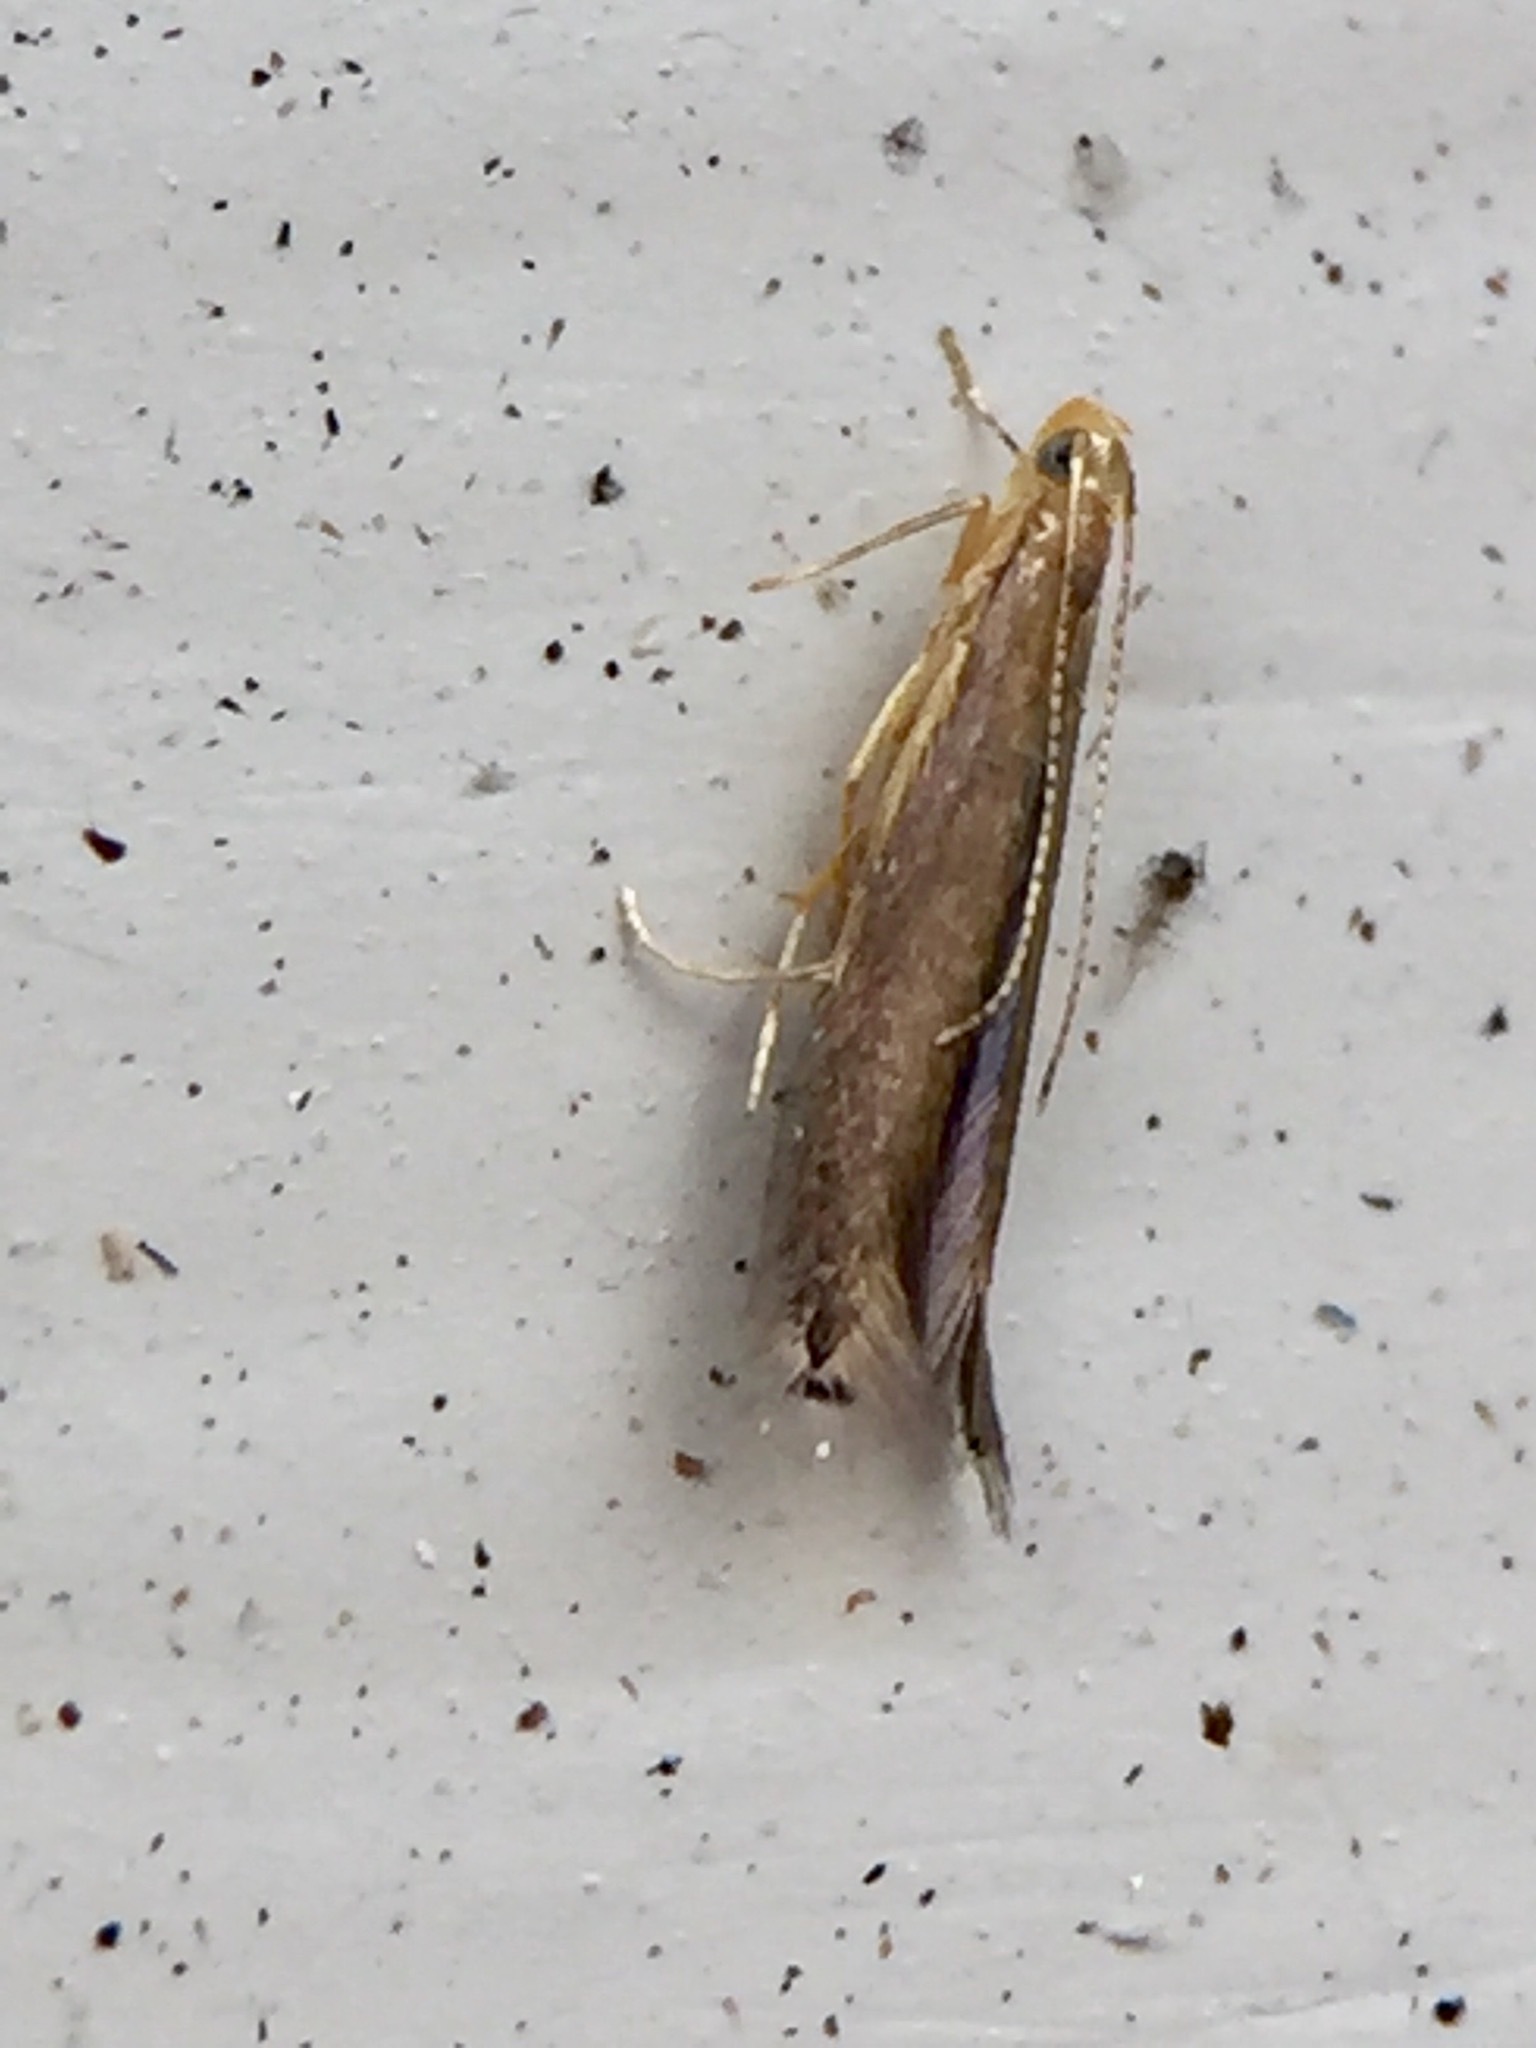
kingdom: Animalia
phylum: Arthropoda
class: Insecta
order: Lepidoptera
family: Batrachedridae
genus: Batrachedra
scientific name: Batrachedra filicicola
